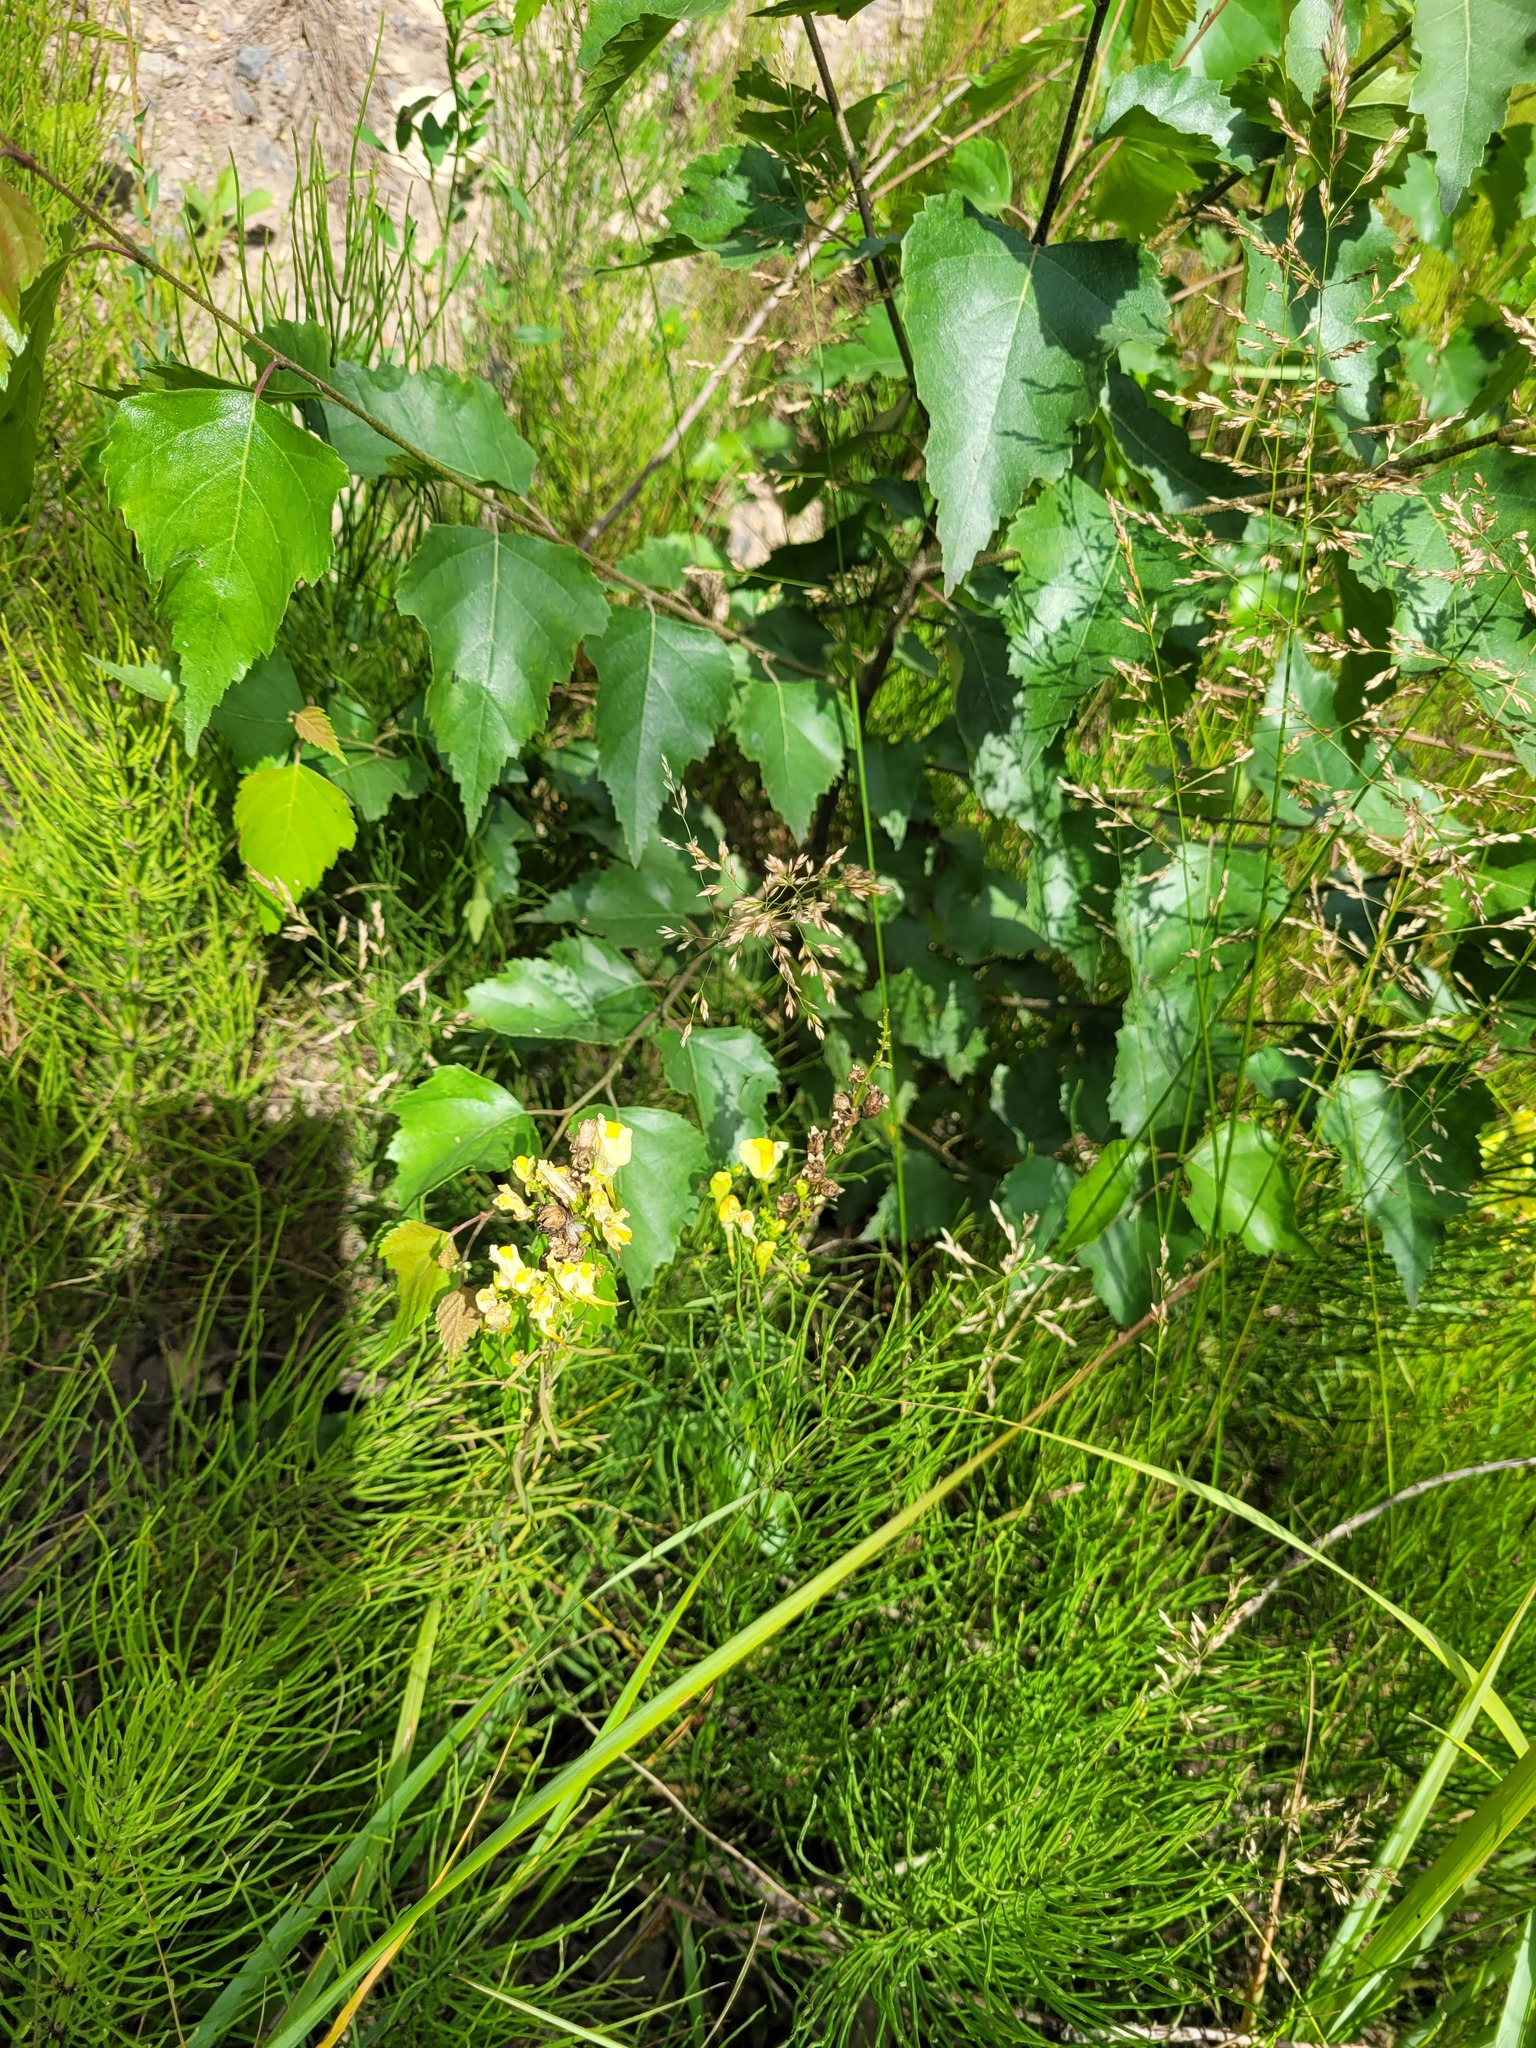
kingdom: Plantae
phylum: Tracheophyta
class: Liliopsida
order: Poales
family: Poaceae
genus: Poa
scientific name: Poa palustris
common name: Swamp meadow-grass
